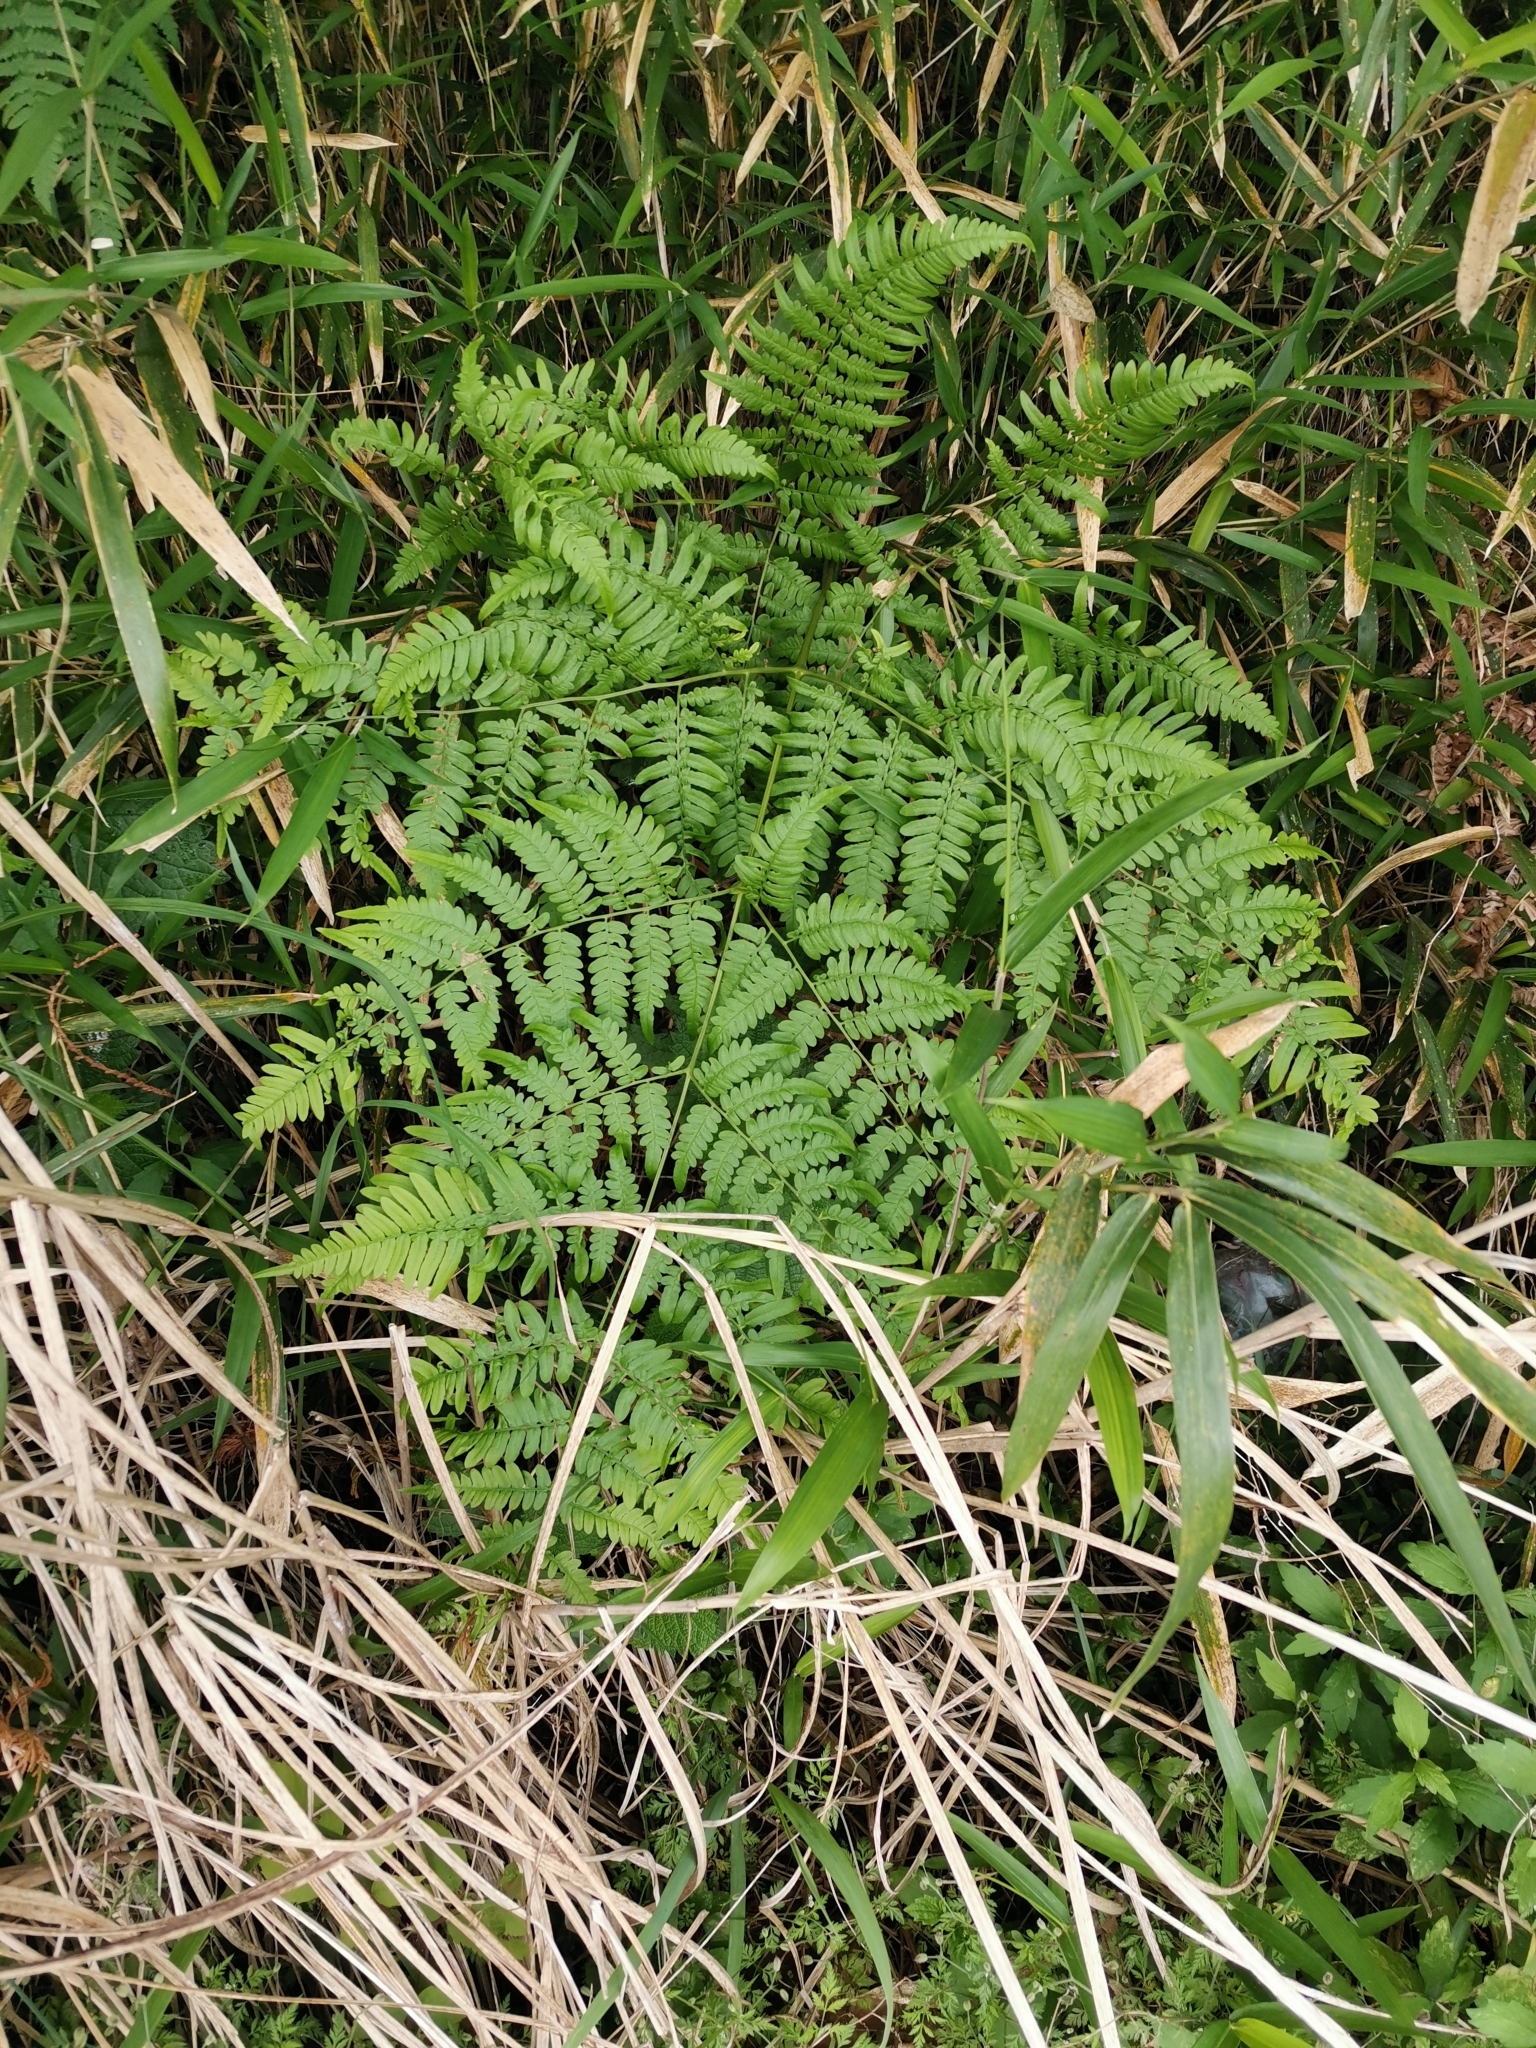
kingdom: Plantae
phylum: Tracheophyta
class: Polypodiopsida
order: Polypodiales
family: Dennstaedtiaceae
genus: Pteridium
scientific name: Pteridium aquilinum
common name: Bracken
